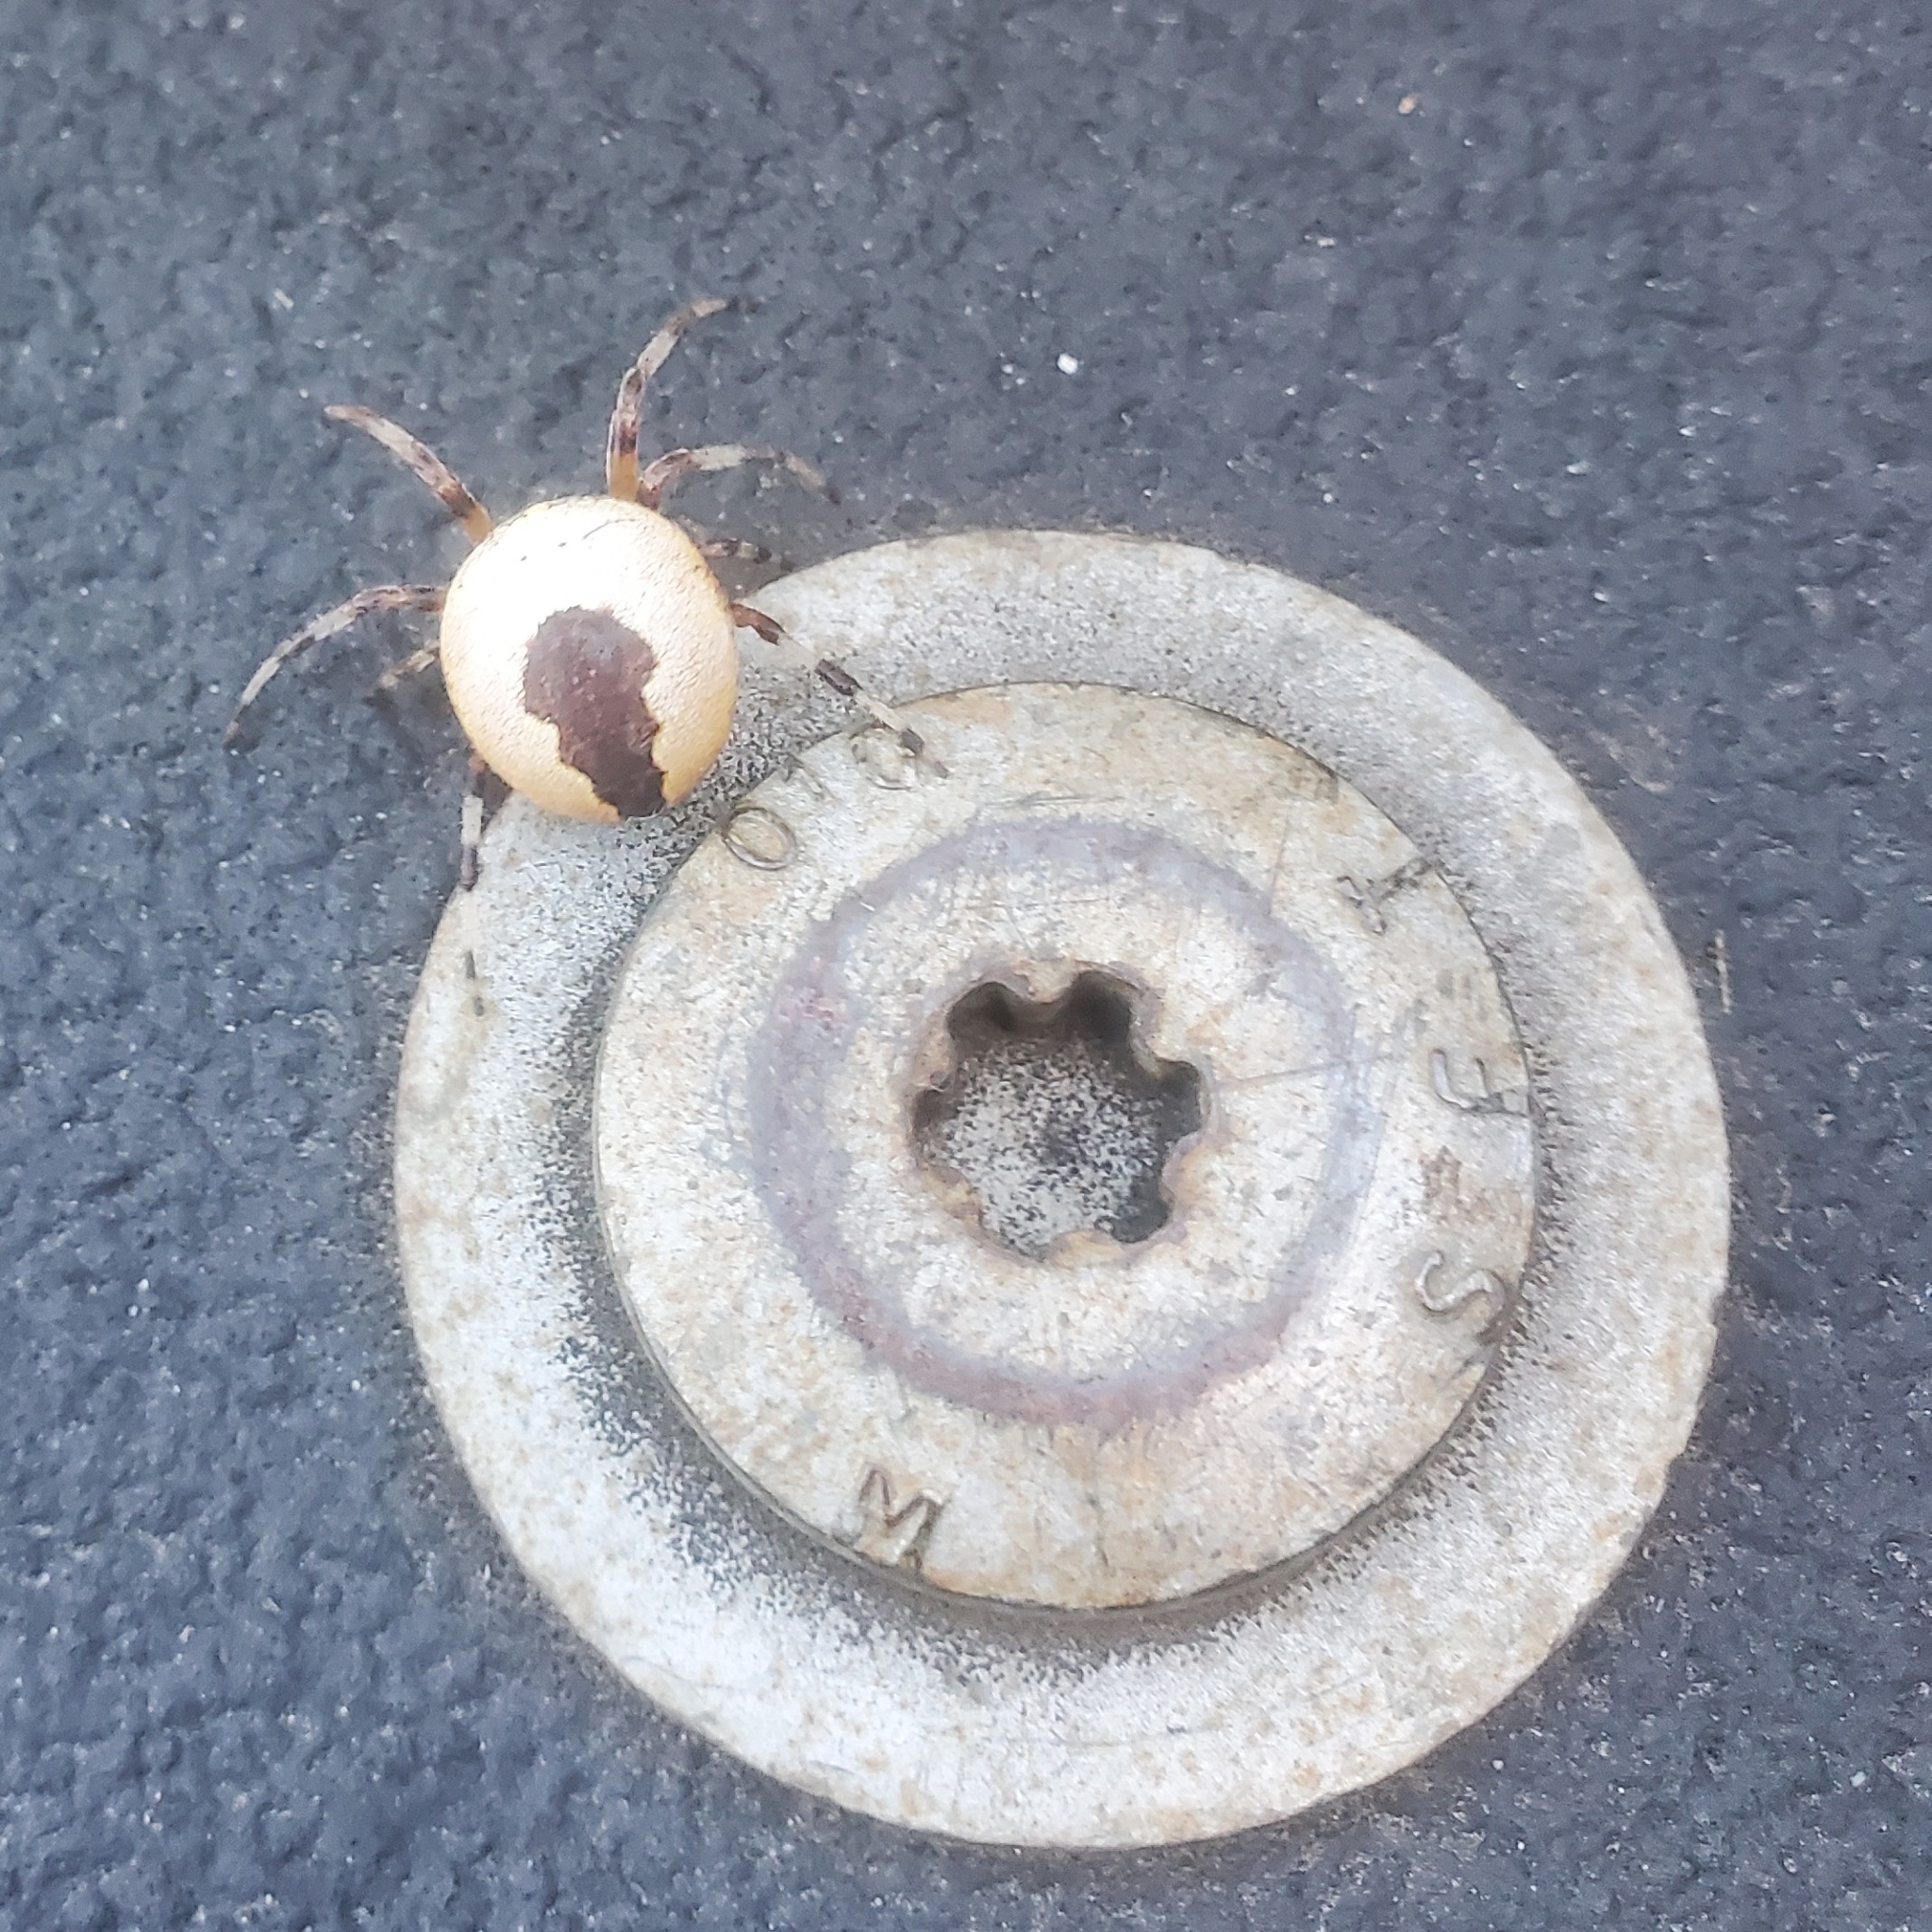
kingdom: Animalia
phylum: Arthropoda
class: Arachnida
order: Araneae
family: Araneidae
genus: Araneus
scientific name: Araneus marmoreus
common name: Marbled orbweaver
